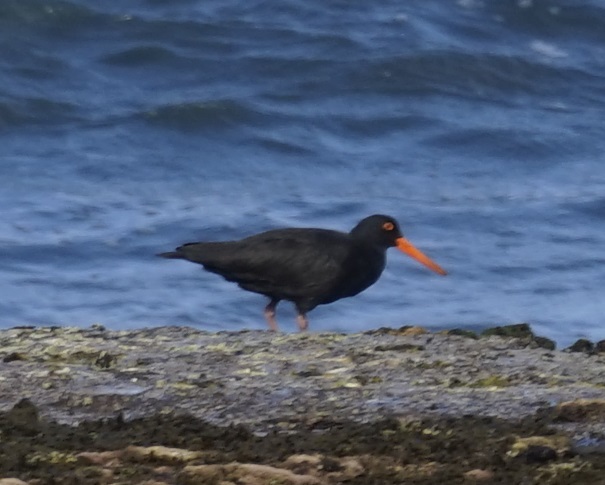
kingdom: Animalia
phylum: Chordata
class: Aves
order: Charadriiformes
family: Haematopodidae
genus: Haematopus
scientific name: Haematopus fuliginosus
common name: Sooty oystercatcher
